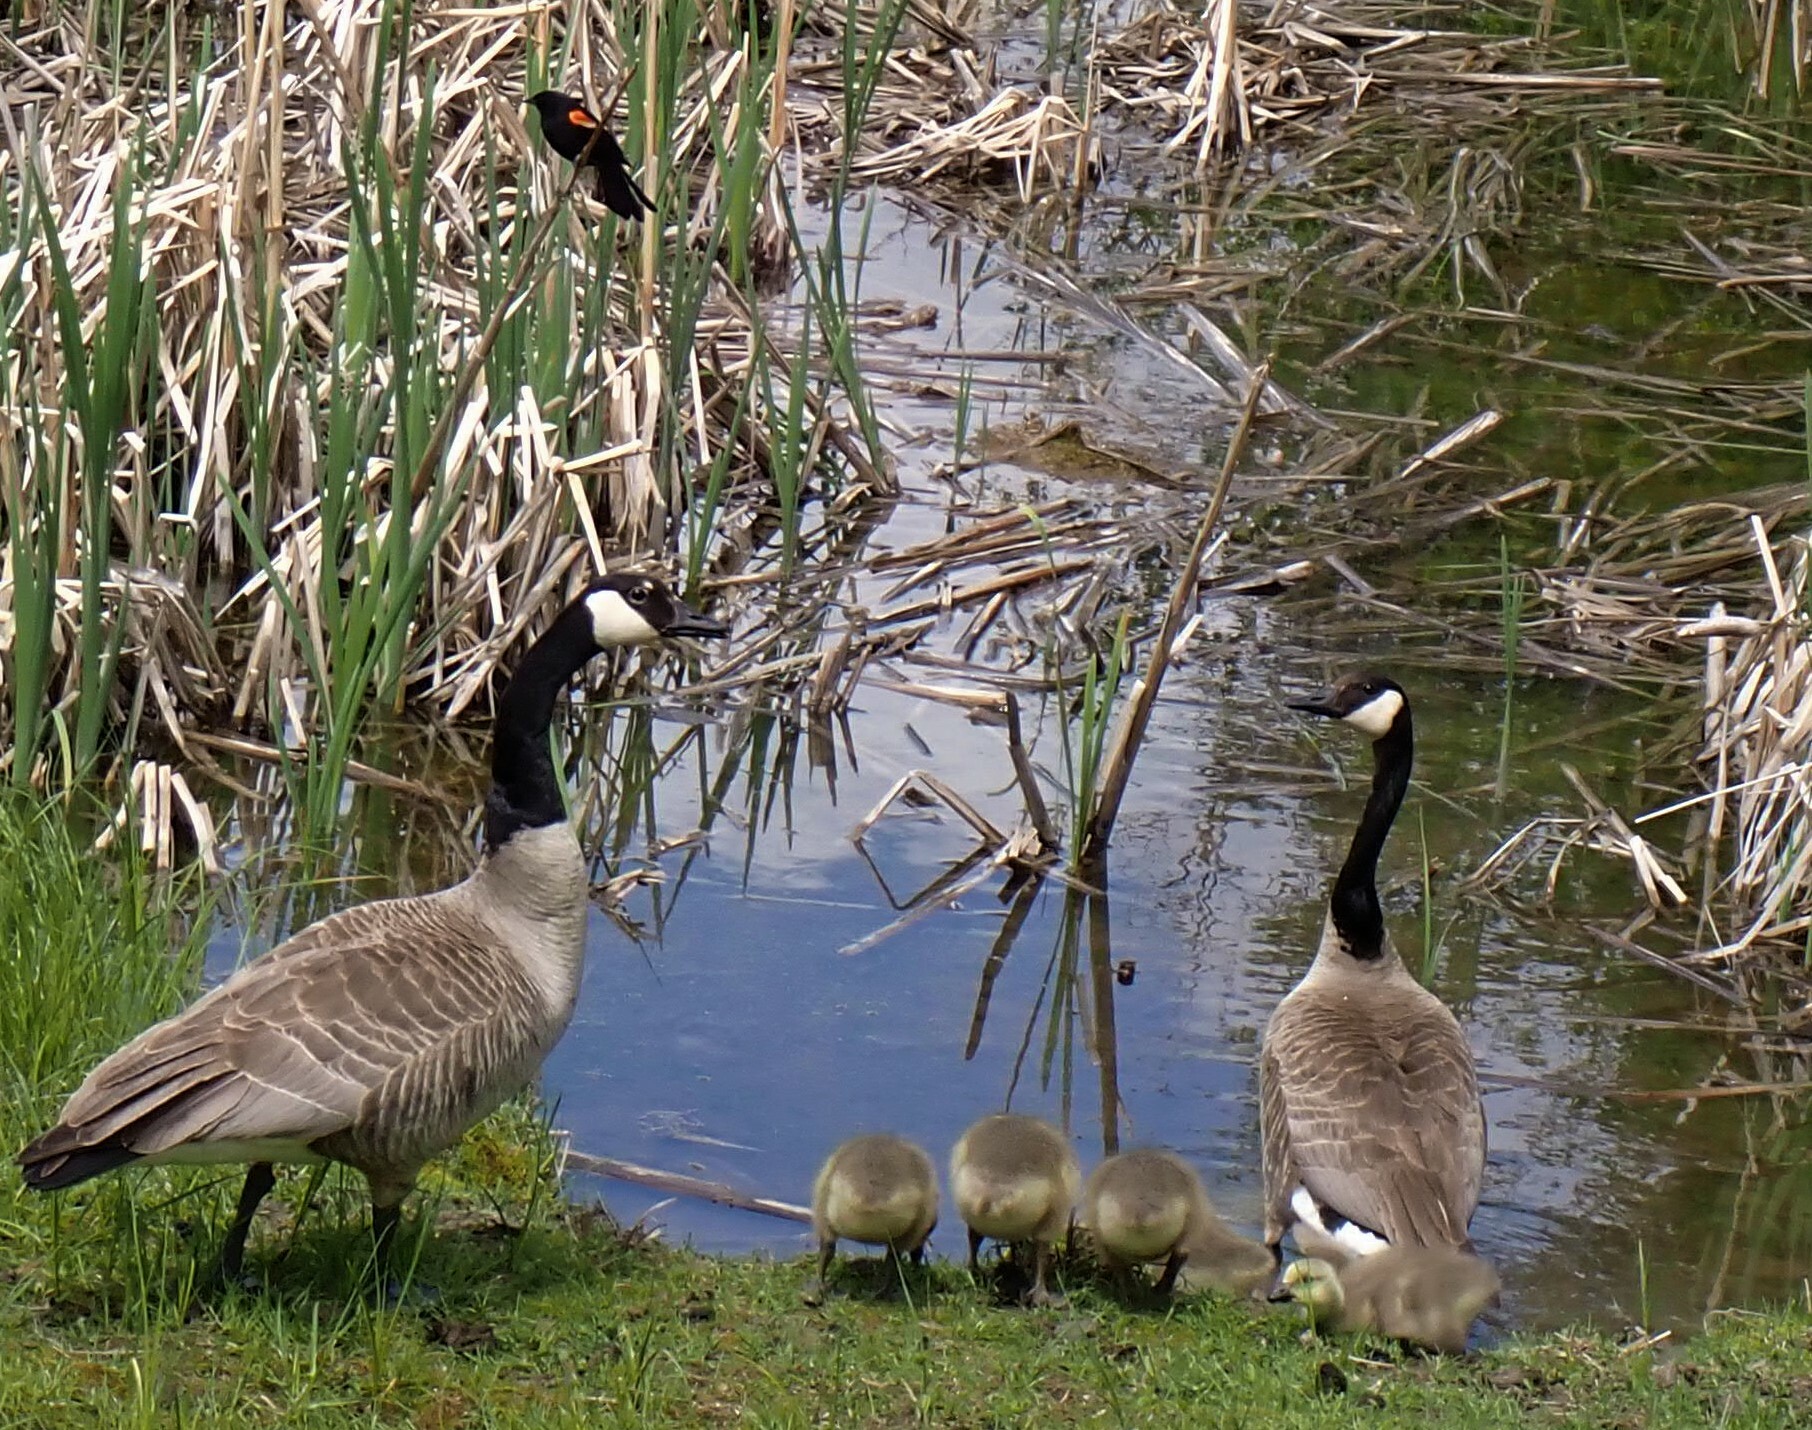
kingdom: Animalia
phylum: Chordata
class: Aves
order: Passeriformes
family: Icteridae
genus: Agelaius
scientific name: Agelaius phoeniceus
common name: Red-winged blackbird
